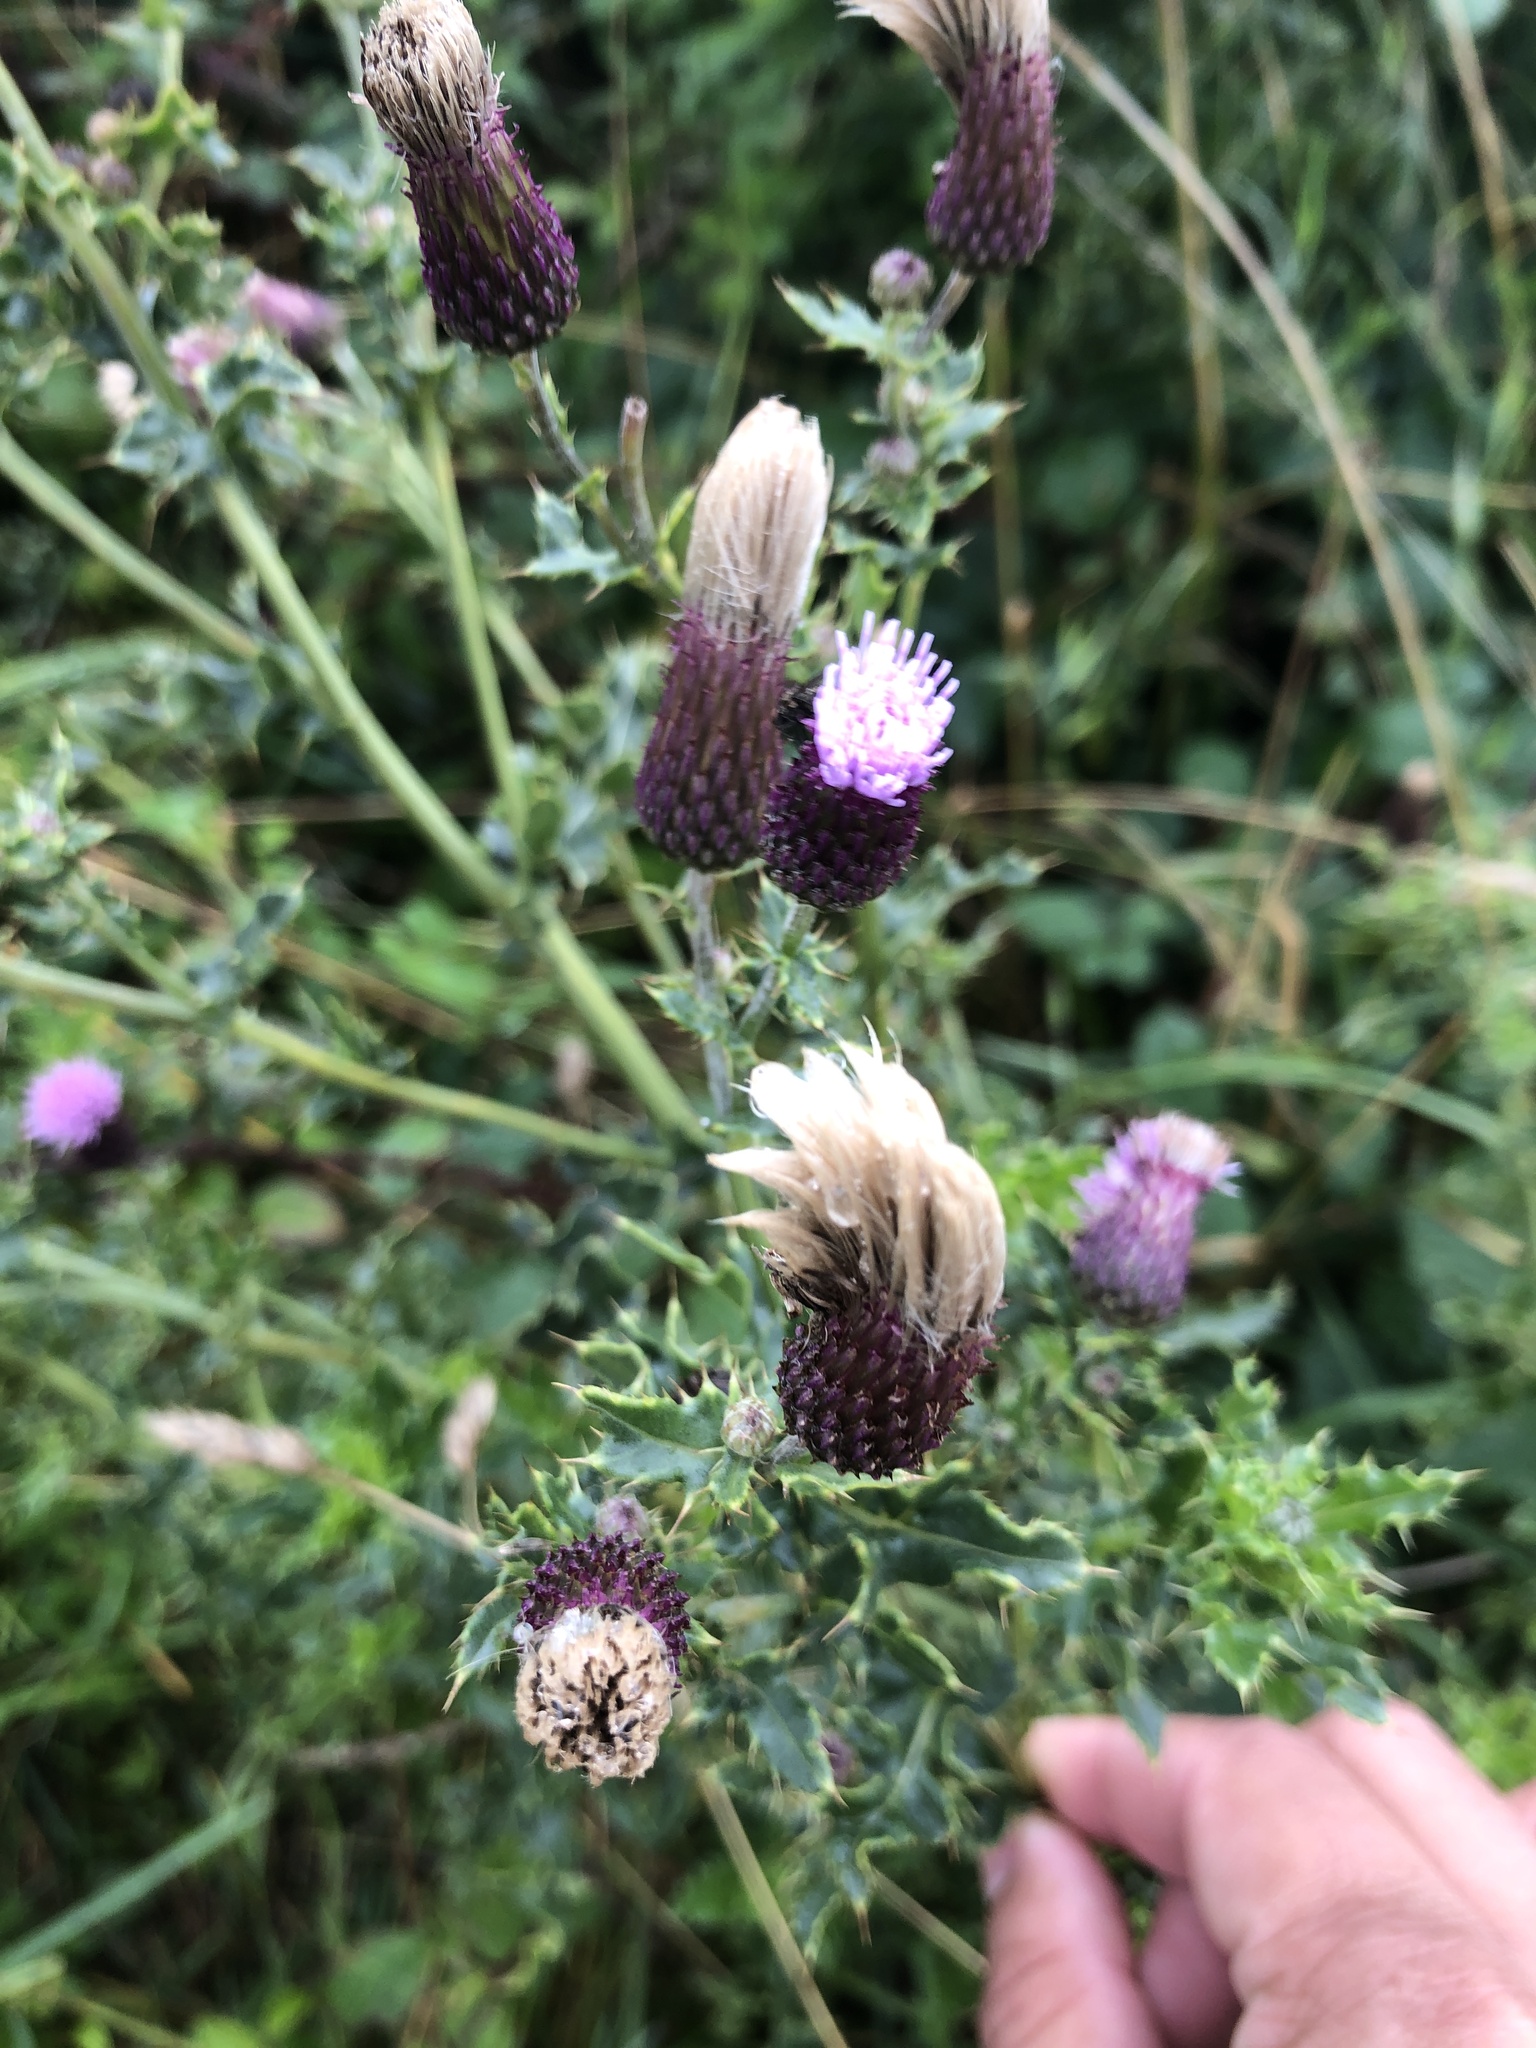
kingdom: Plantae
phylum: Tracheophyta
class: Magnoliopsida
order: Asterales
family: Asteraceae
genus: Cirsium
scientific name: Cirsium arvense
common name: Creeping thistle
